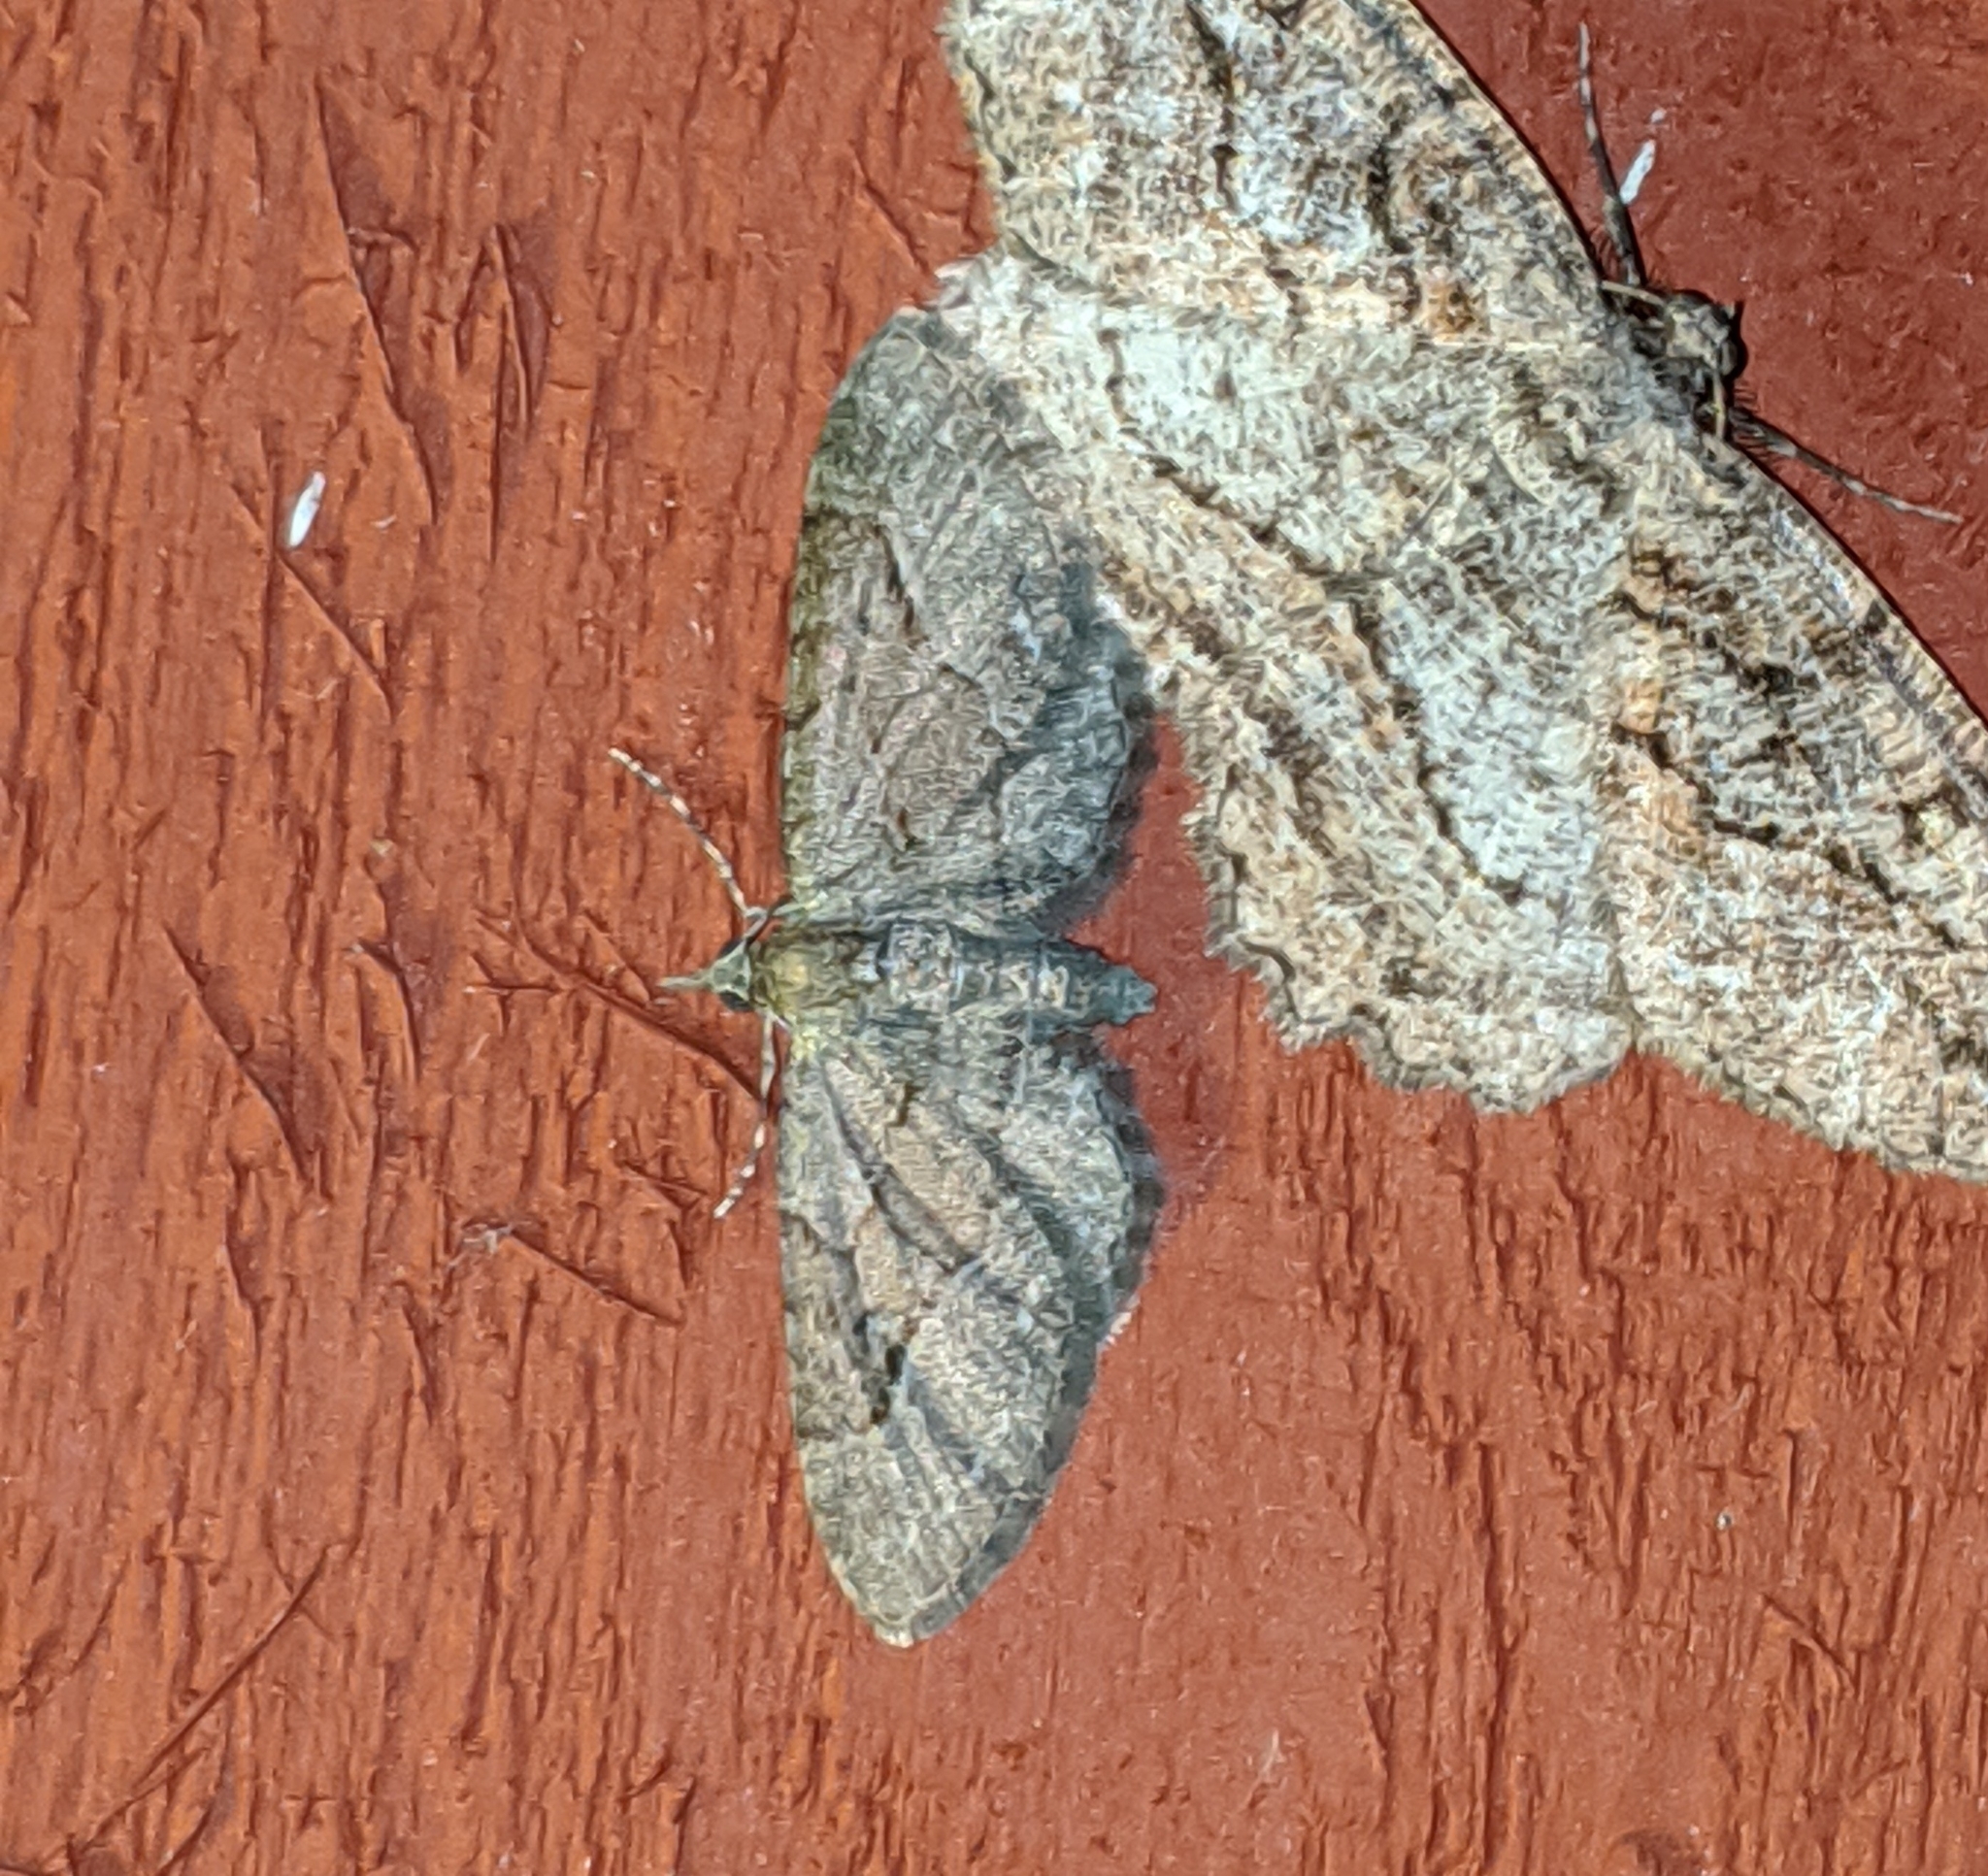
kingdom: Animalia
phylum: Arthropoda
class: Insecta
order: Lepidoptera
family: Geometridae
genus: Eupithecia
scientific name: Eupithecia unicolor
